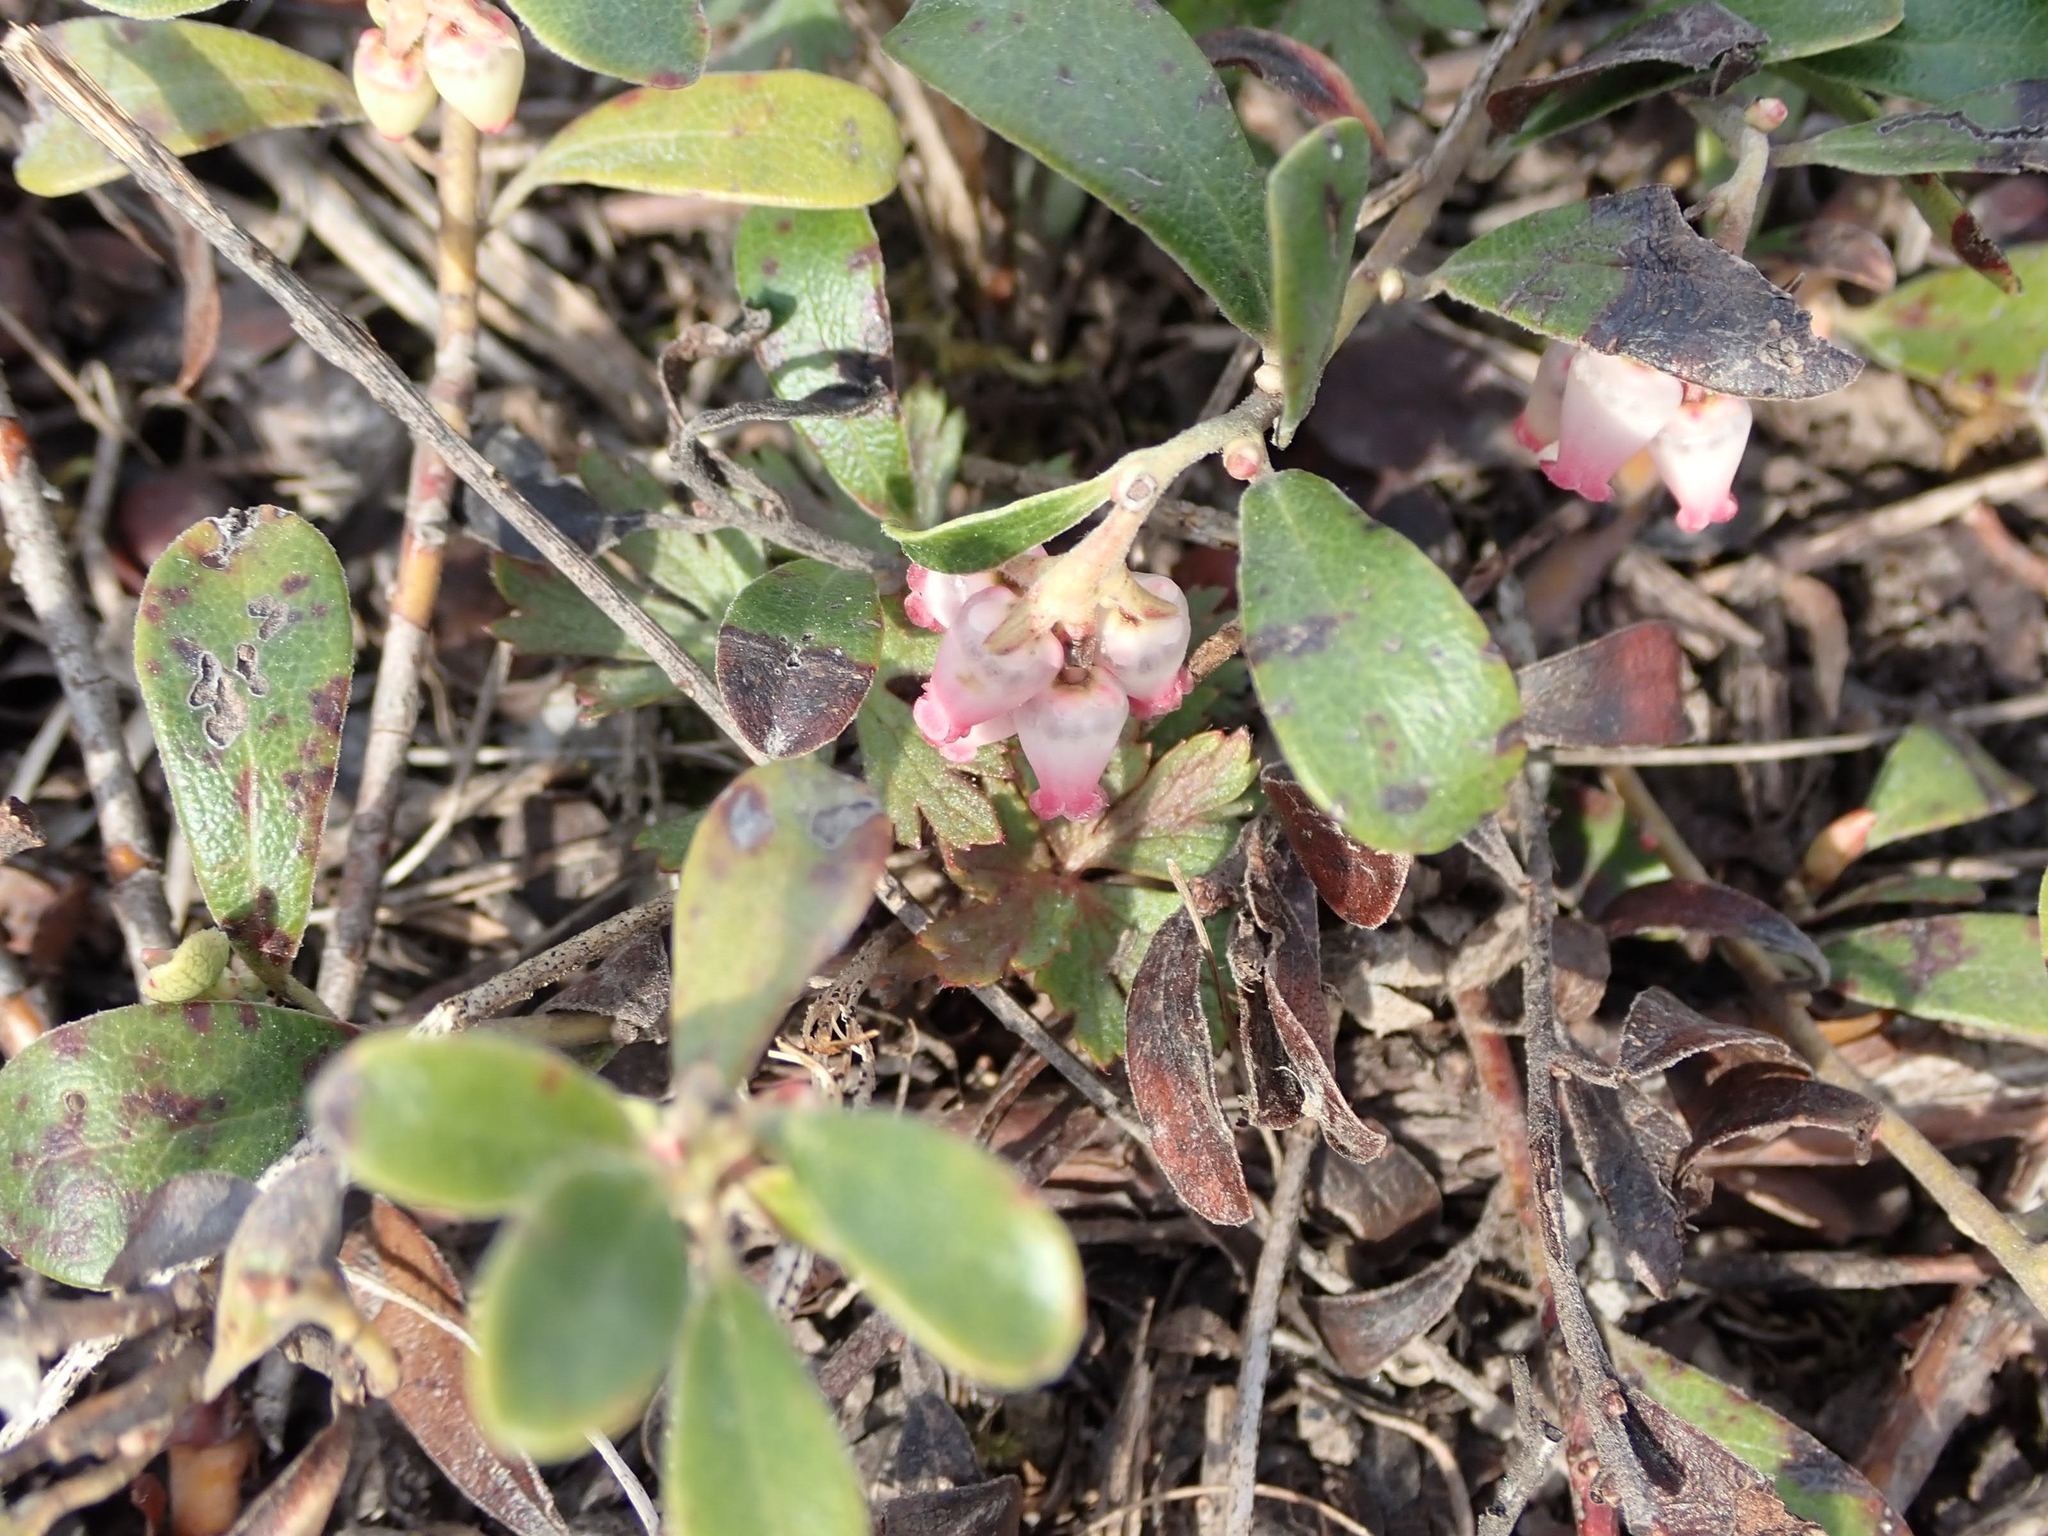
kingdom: Plantae
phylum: Tracheophyta
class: Magnoliopsida
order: Ericales
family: Ericaceae
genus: Arctostaphylos
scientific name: Arctostaphylos uva-ursi
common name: Bearberry
